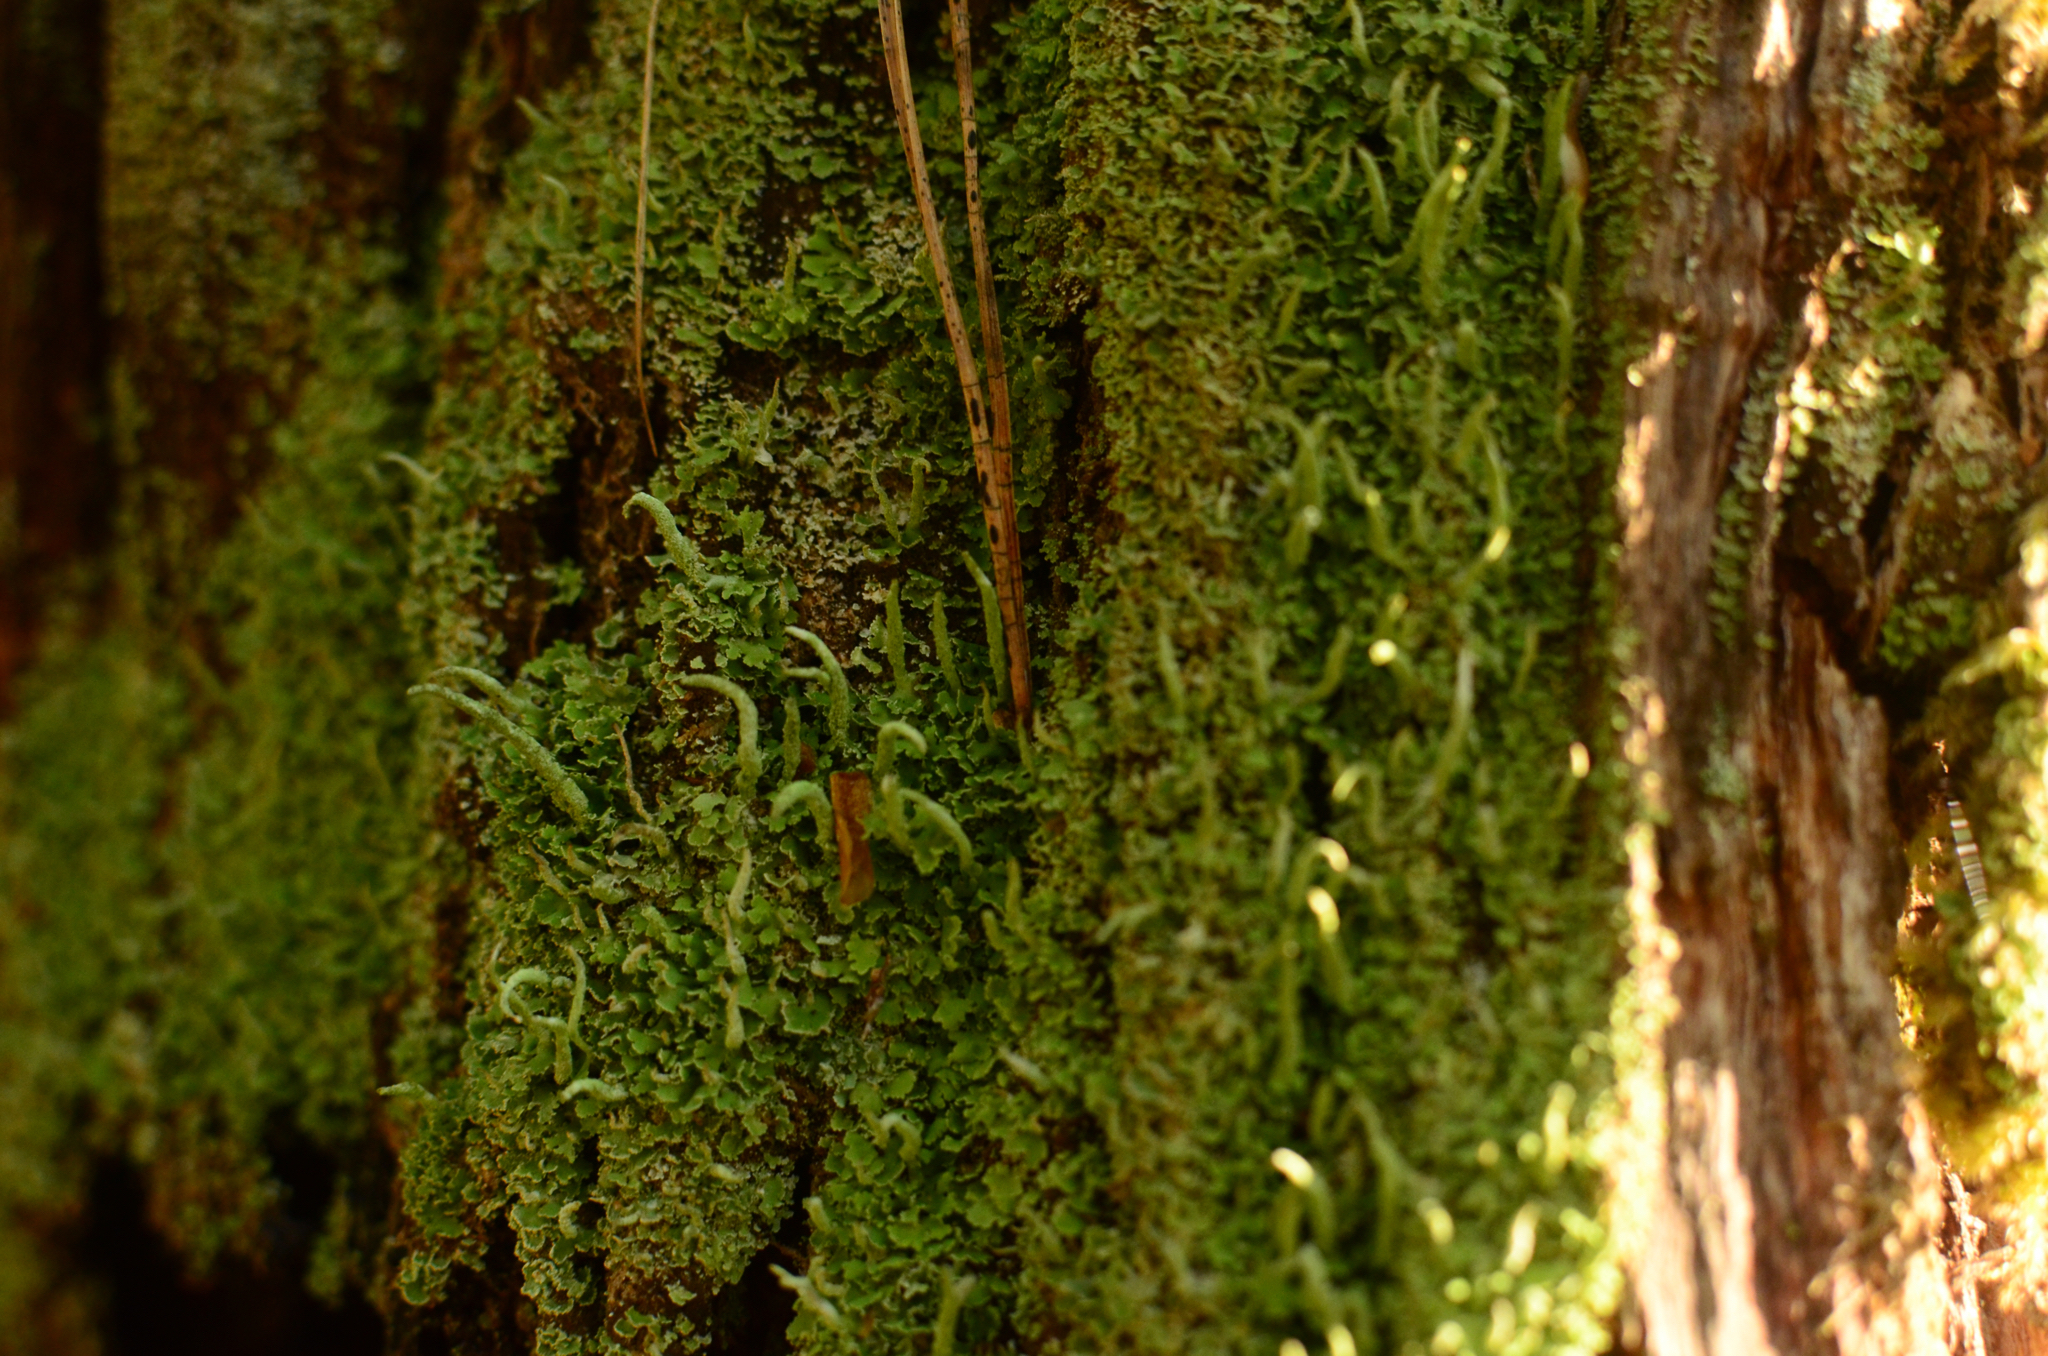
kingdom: Fungi
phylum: Ascomycota
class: Lecanoromycetes
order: Lecanorales
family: Cladoniaceae
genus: Cladonia
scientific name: Cladonia coniocraea
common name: Common powderhorn
